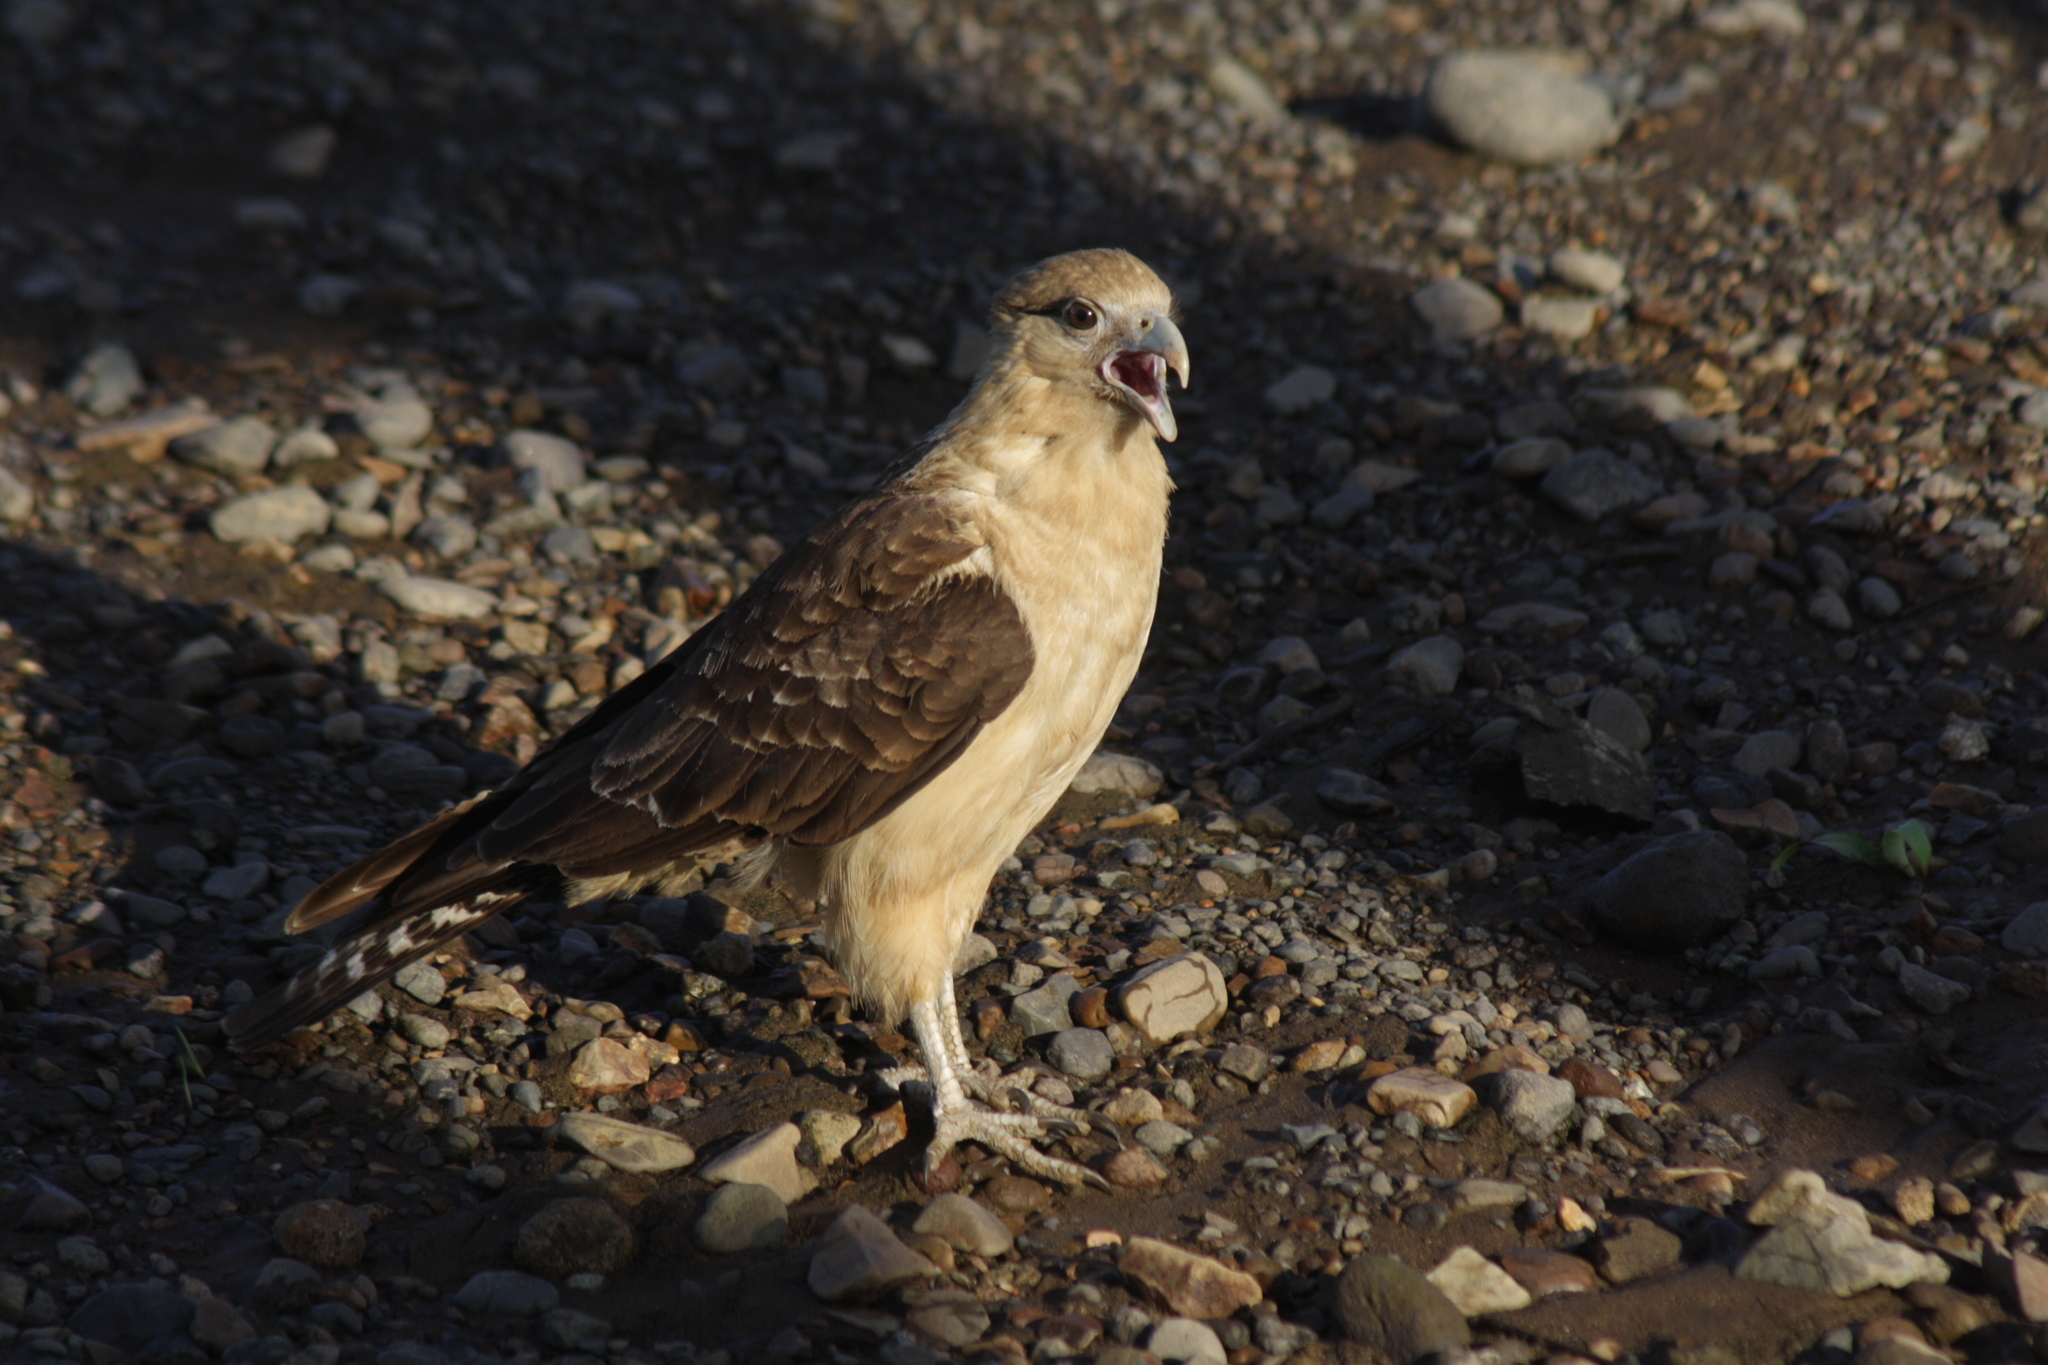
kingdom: Animalia
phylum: Chordata
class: Aves
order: Falconiformes
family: Falconidae
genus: Daptrius
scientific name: Daptrius
